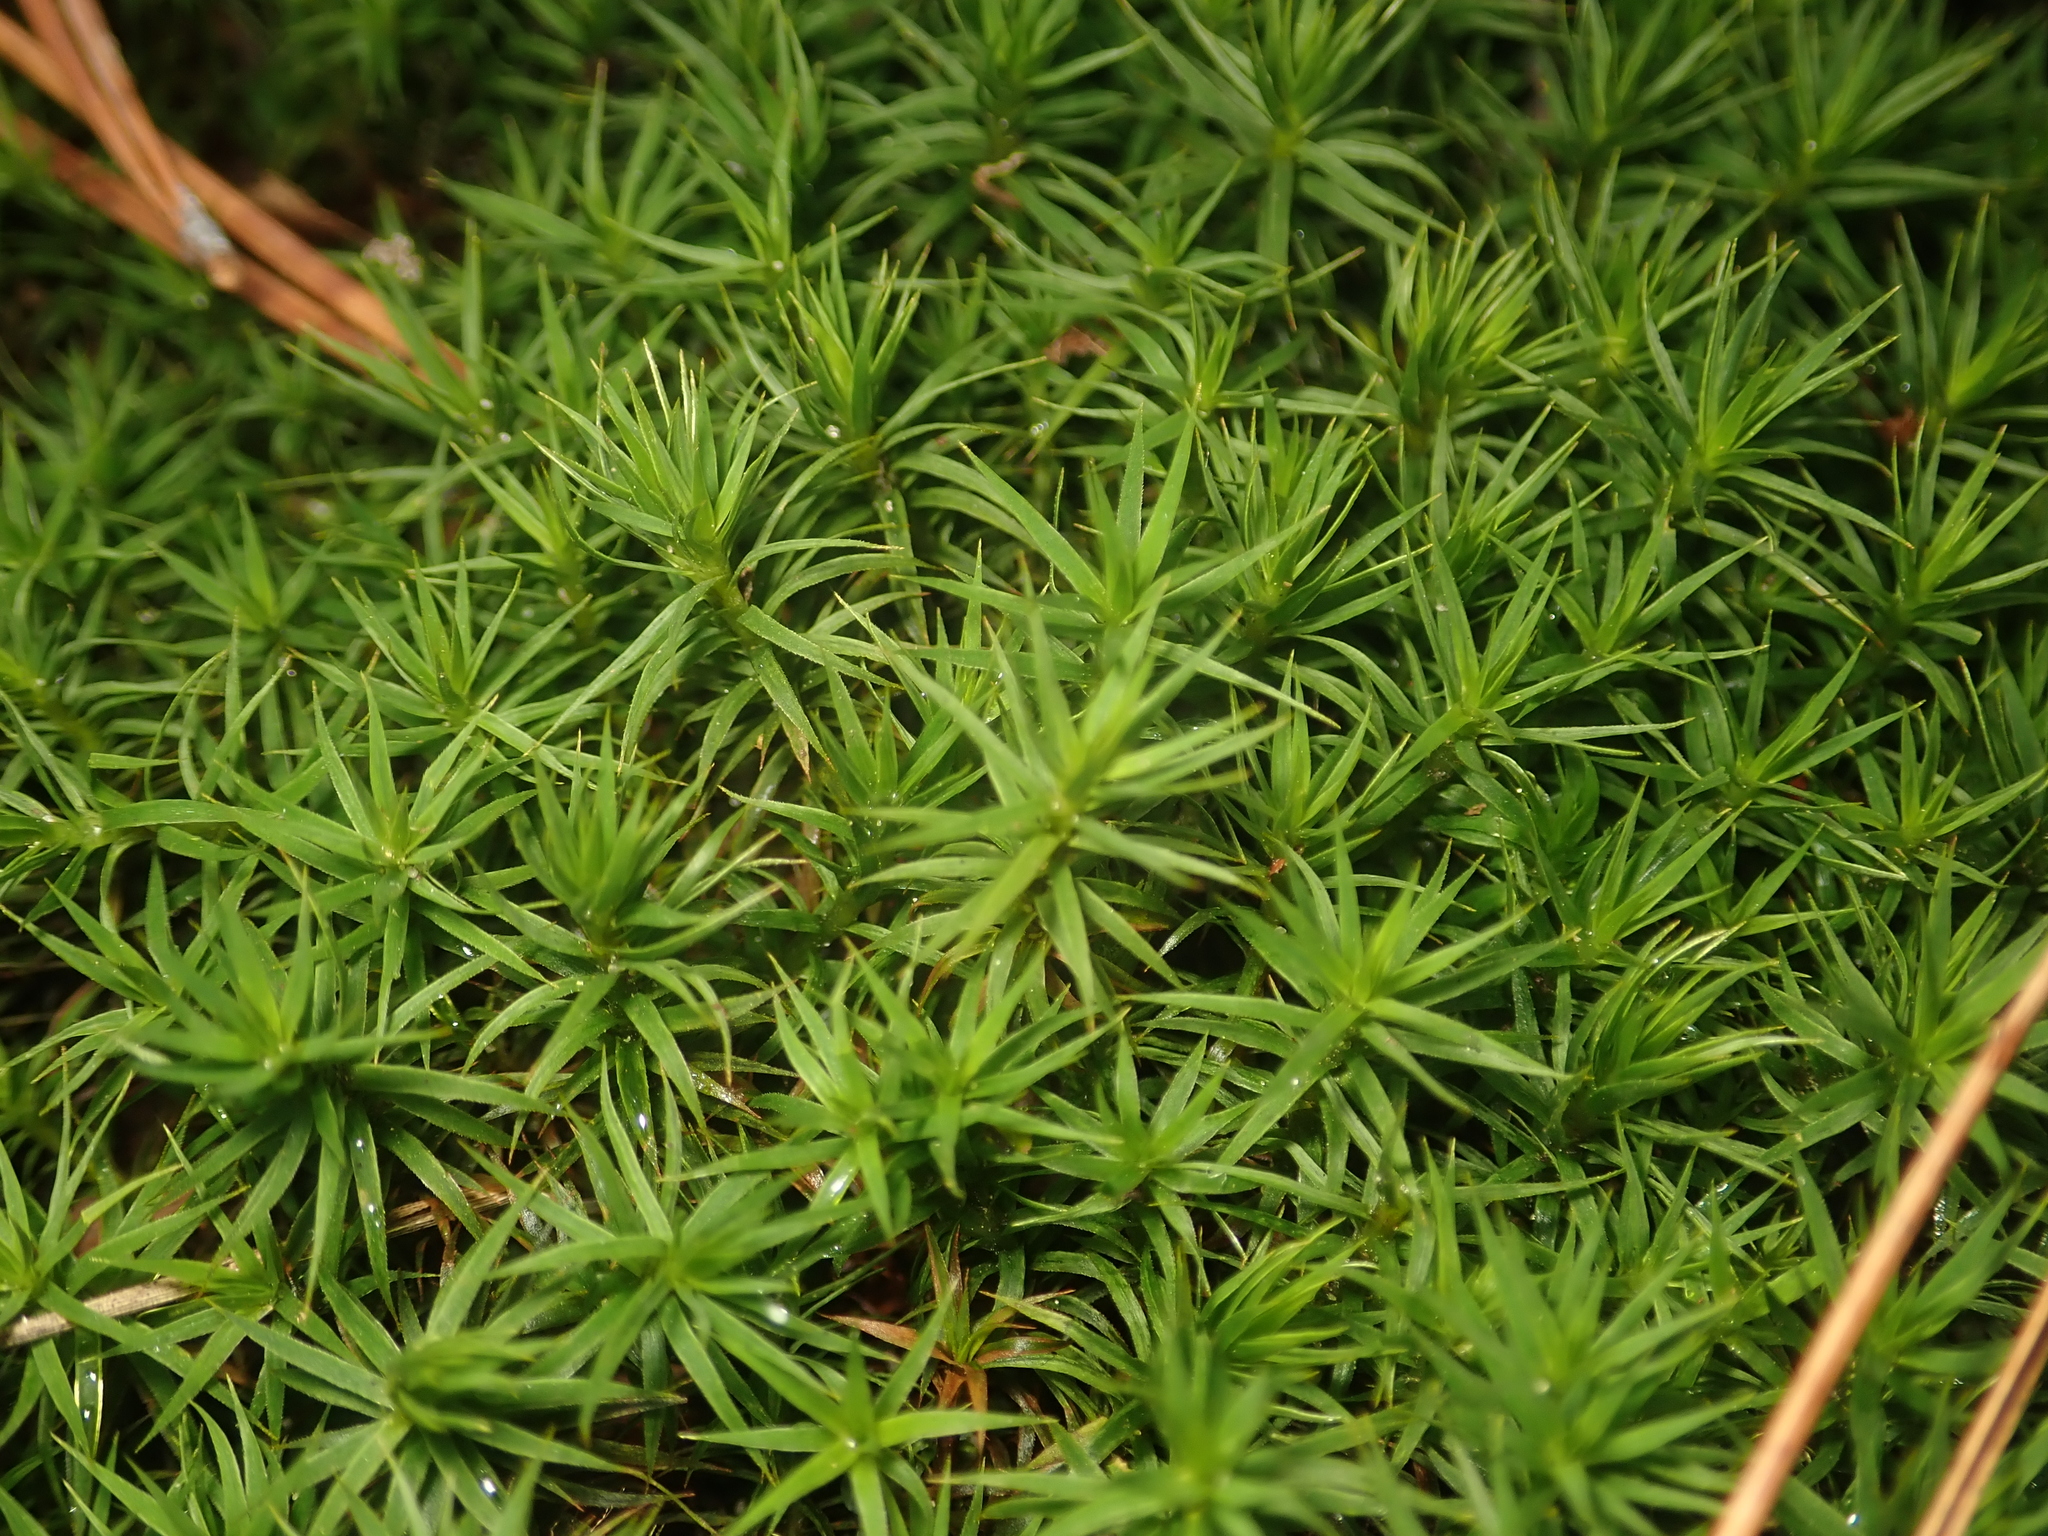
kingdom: Plantae
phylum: Bryophyta
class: Polytrichopsida
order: Polytrichales
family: Polytrichaceae
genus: Polytrichum
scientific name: Polytrichum formosum
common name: Bank haircap moss
